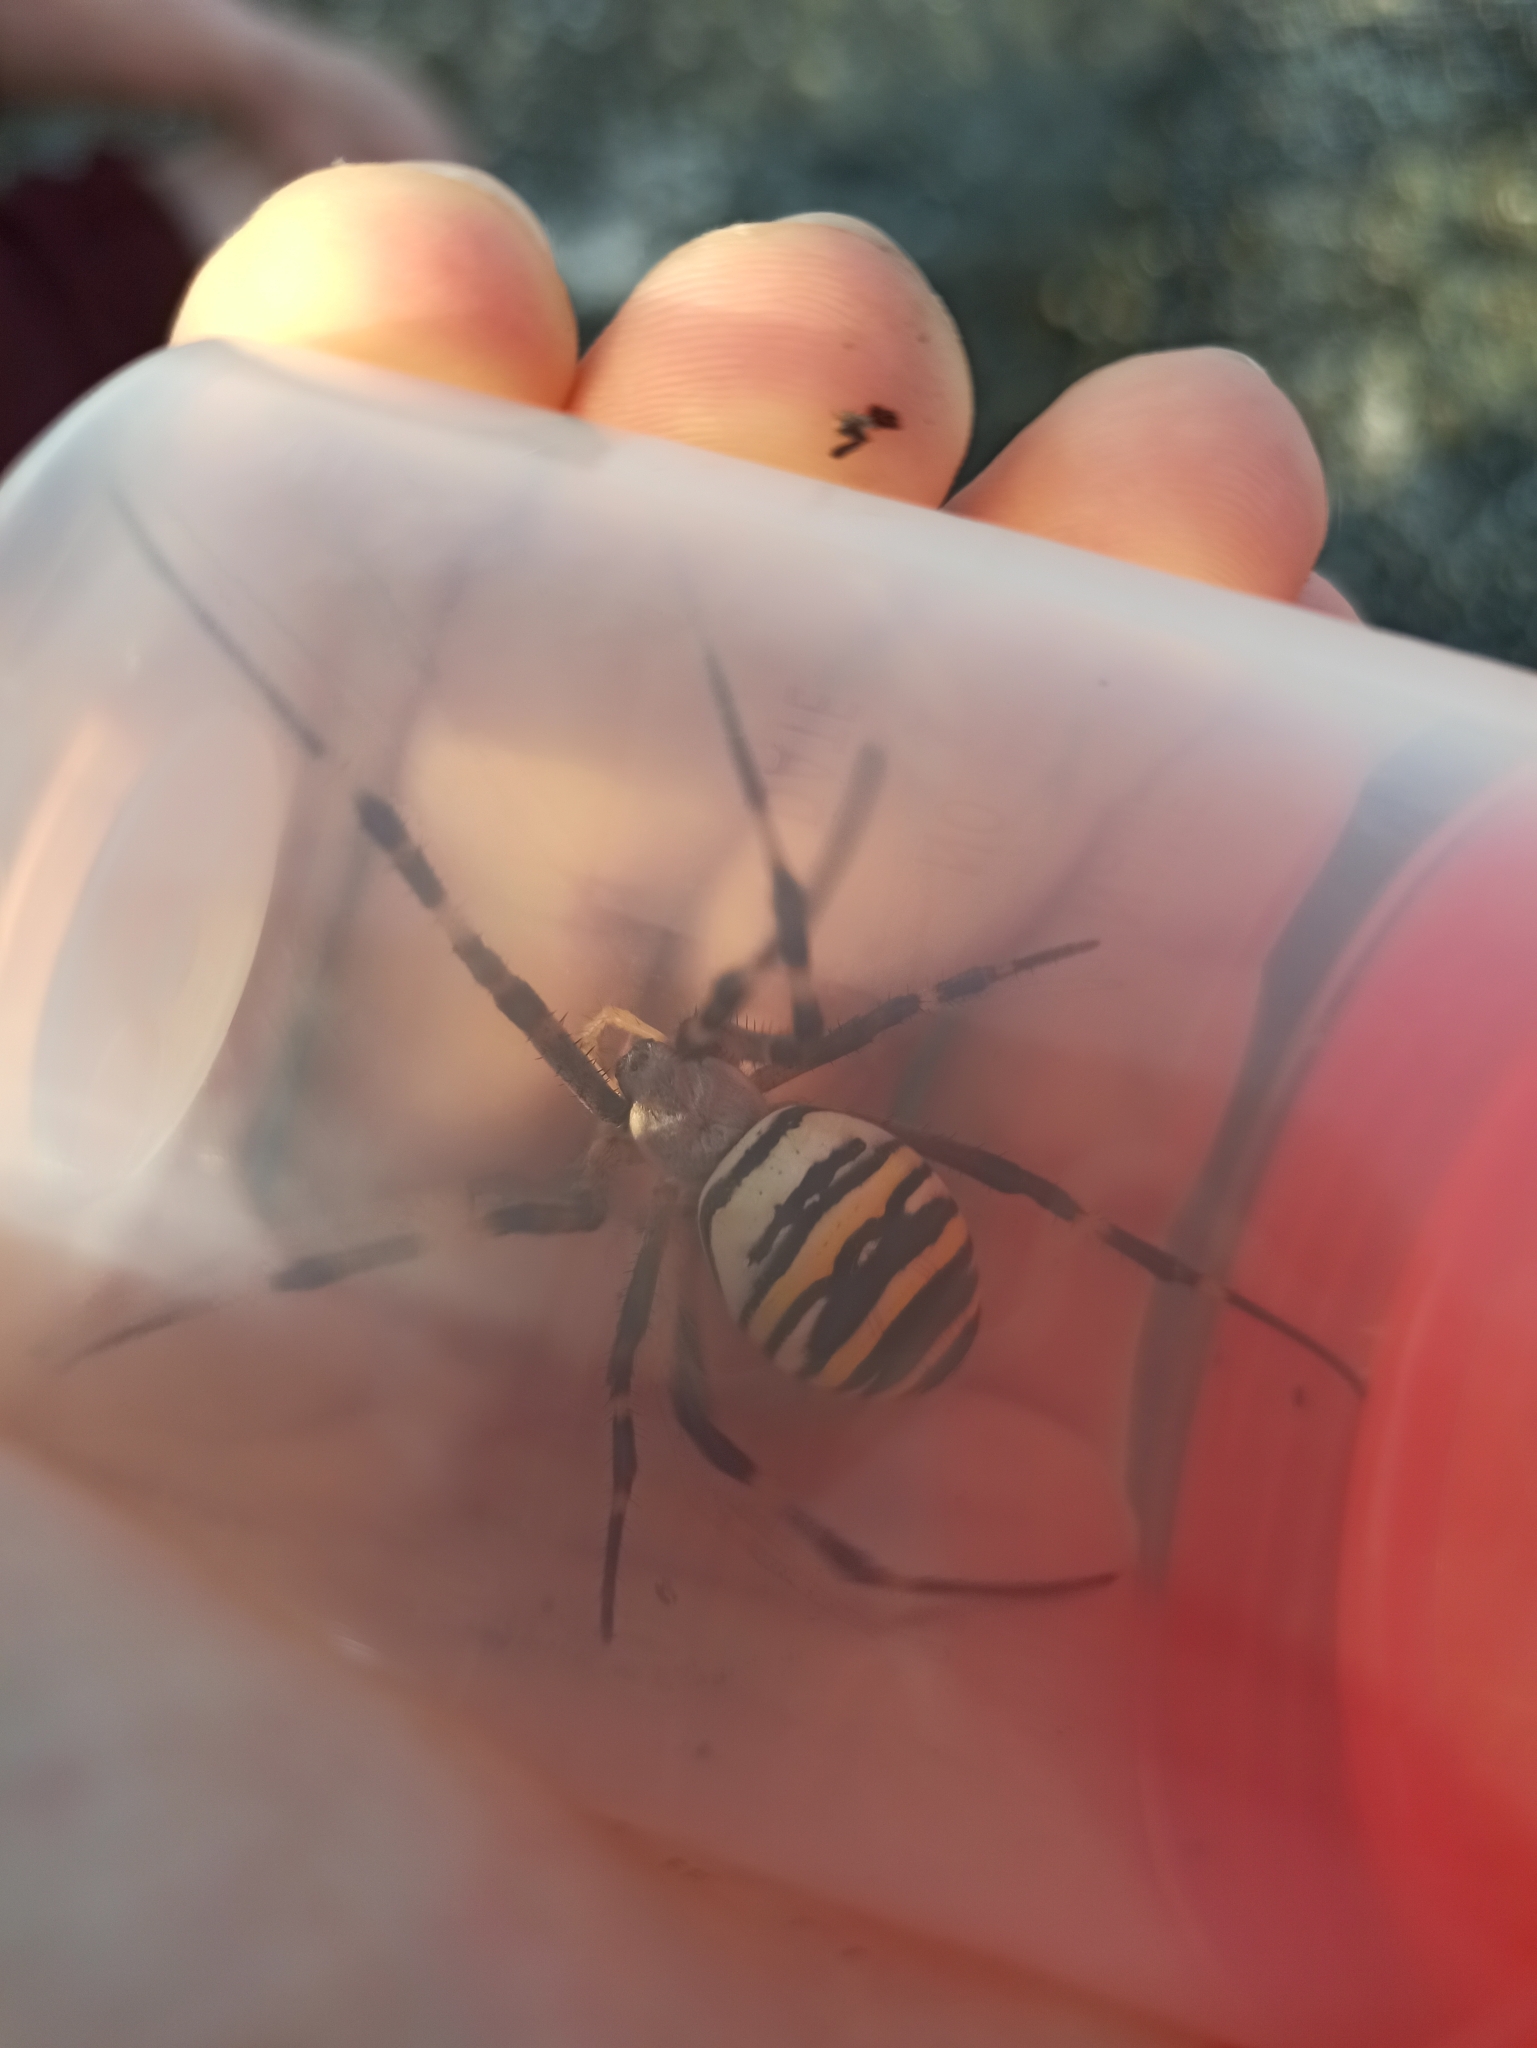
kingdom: Animalia
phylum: Arthropoda
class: Arachnida
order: Araneae
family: Araneidae
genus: Argiope
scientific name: Argiope bruennichi
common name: Wasp spider
